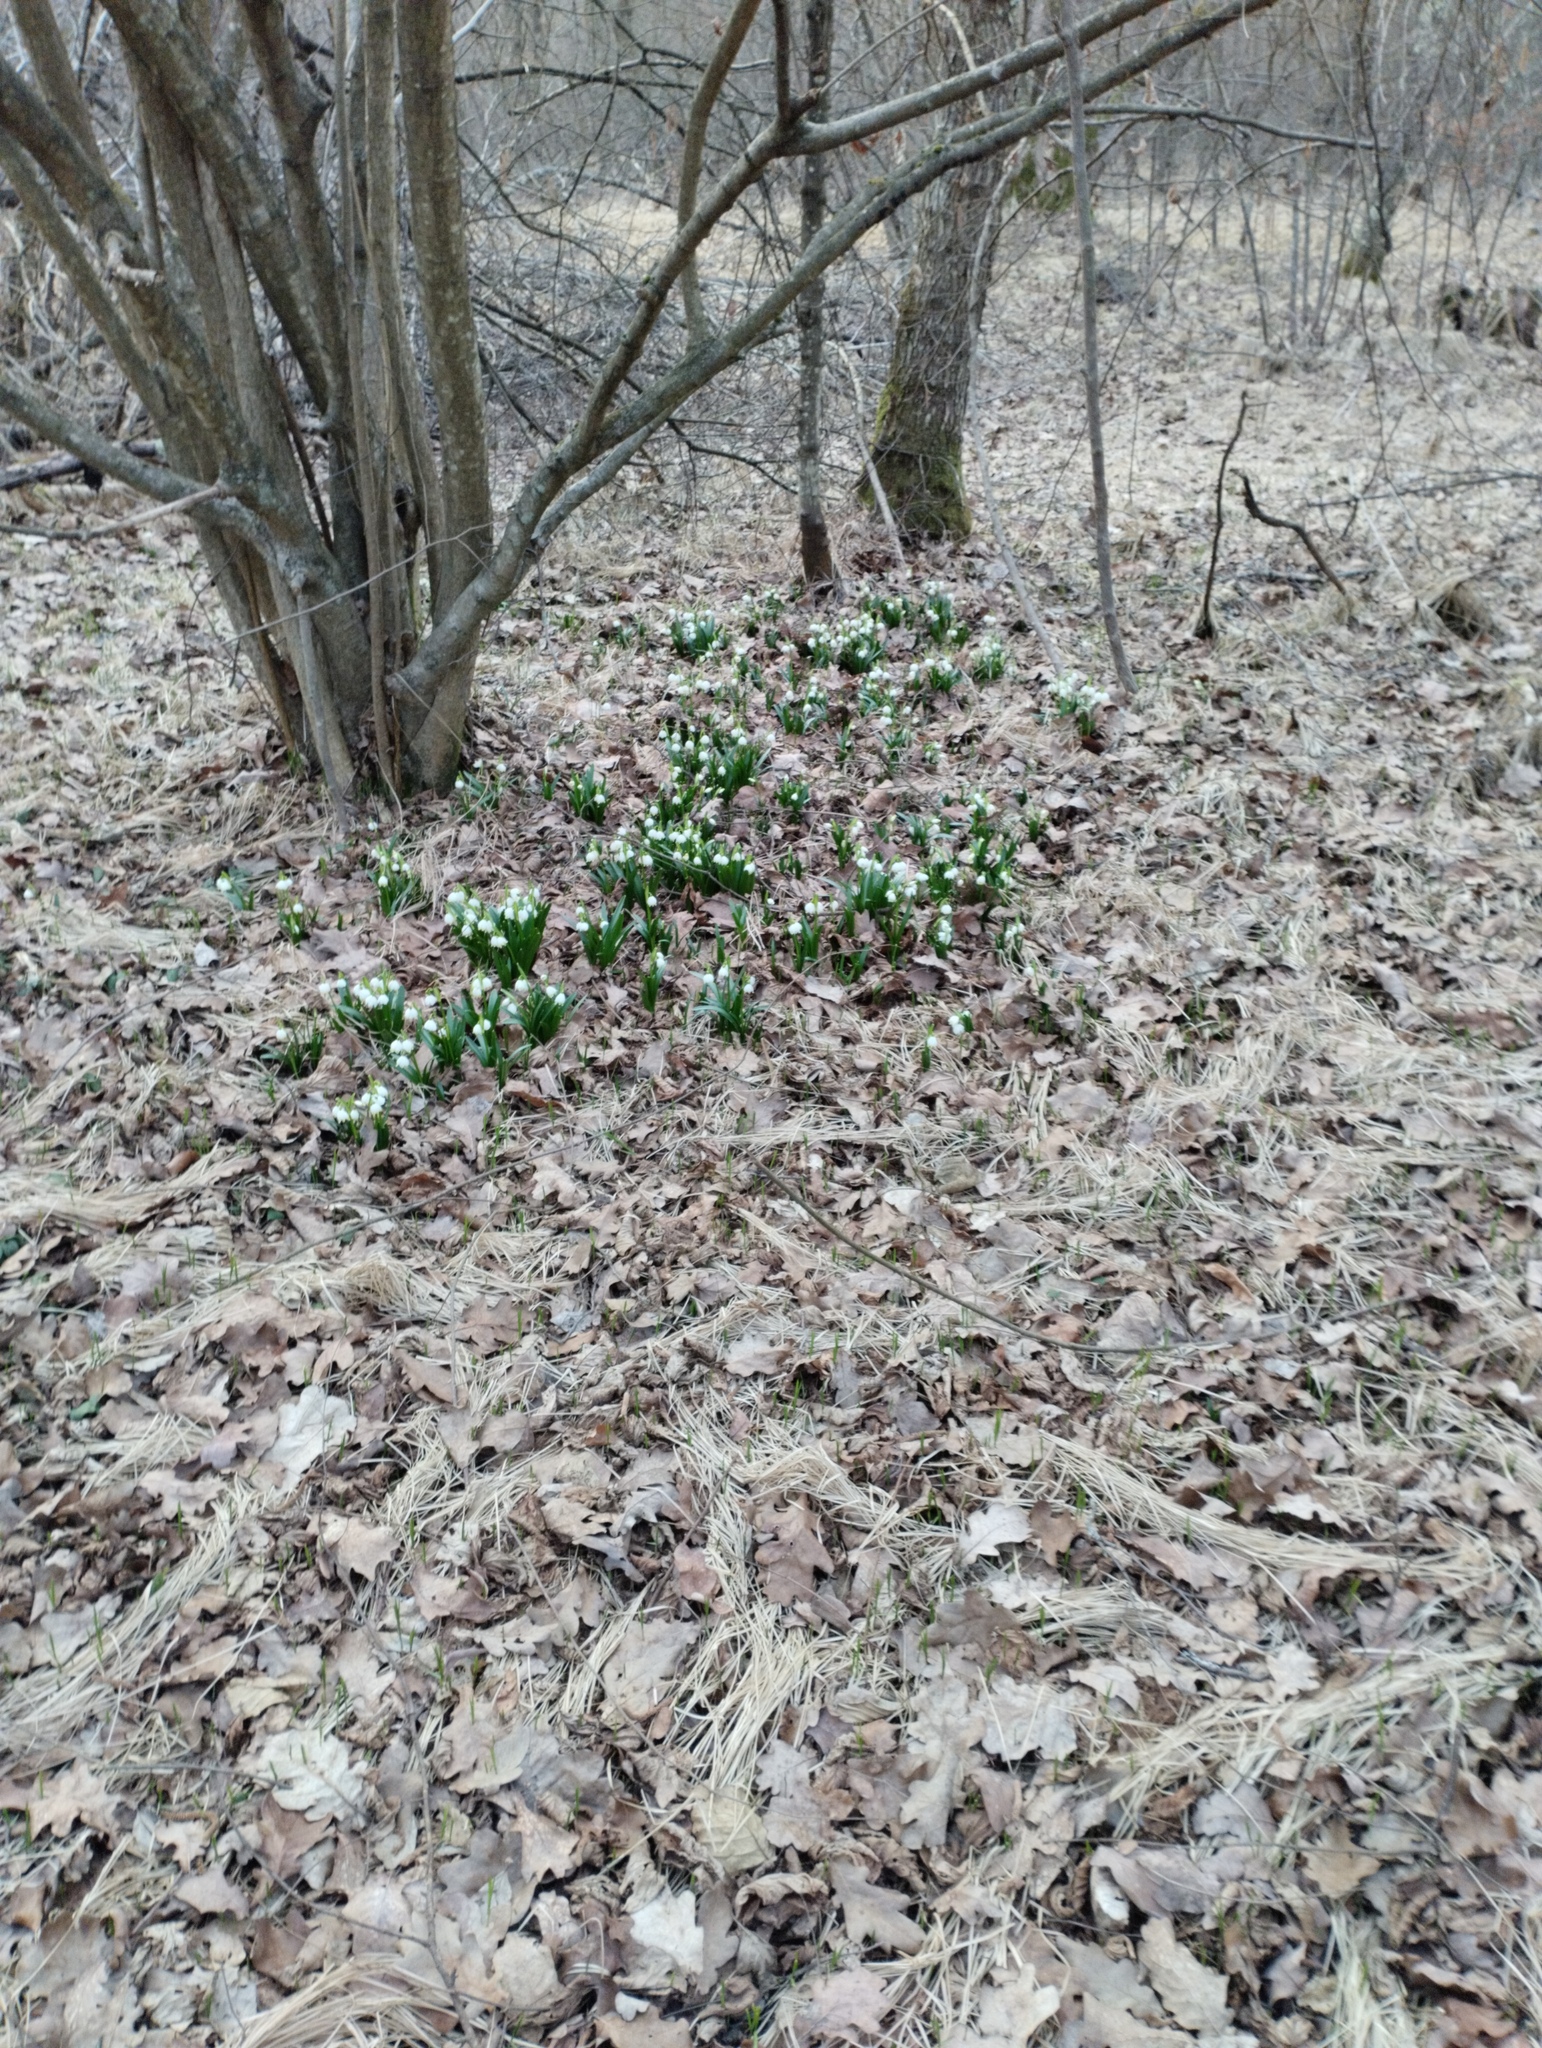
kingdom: Plantae
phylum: Tracheophyta
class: Liliopsida
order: Asparagales
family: Amaryllidaceae
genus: Leucojum
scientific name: Leucojum vernum
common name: Spring snowflake
